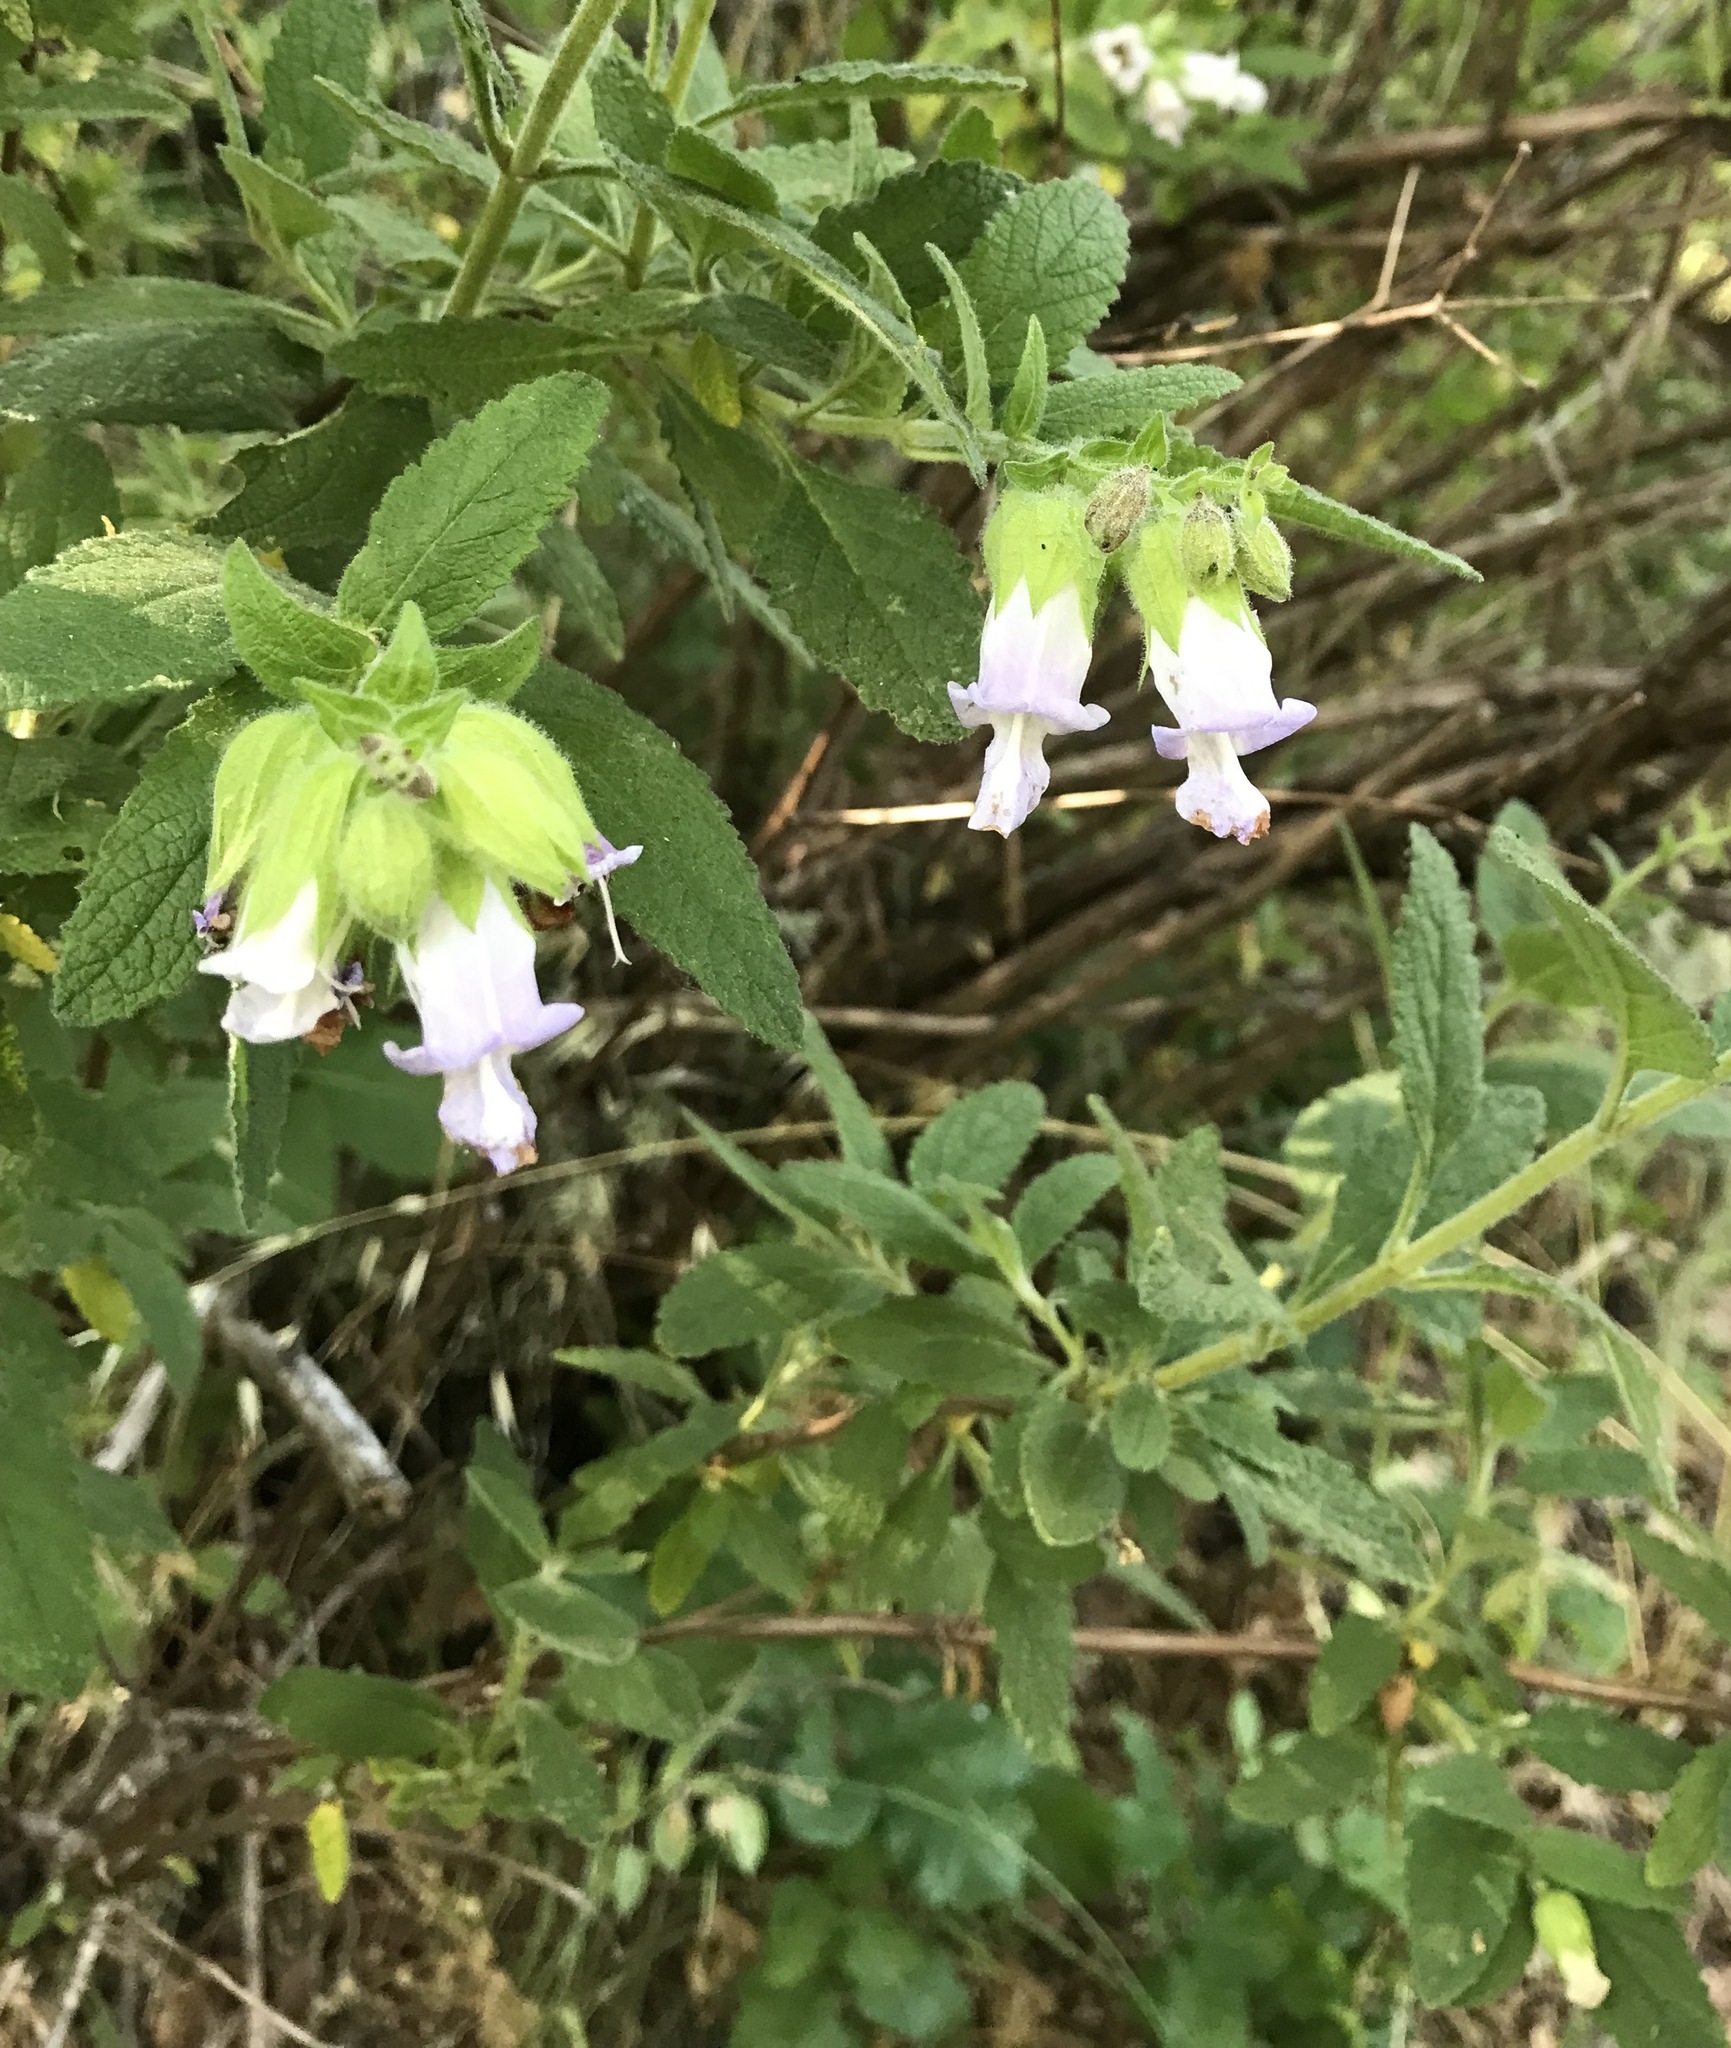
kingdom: Plantae
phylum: Tracheophyta
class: Magnoliopsida
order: Lamiales
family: Lamiaceae
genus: Lepechinia
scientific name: Lepechinia calycina
